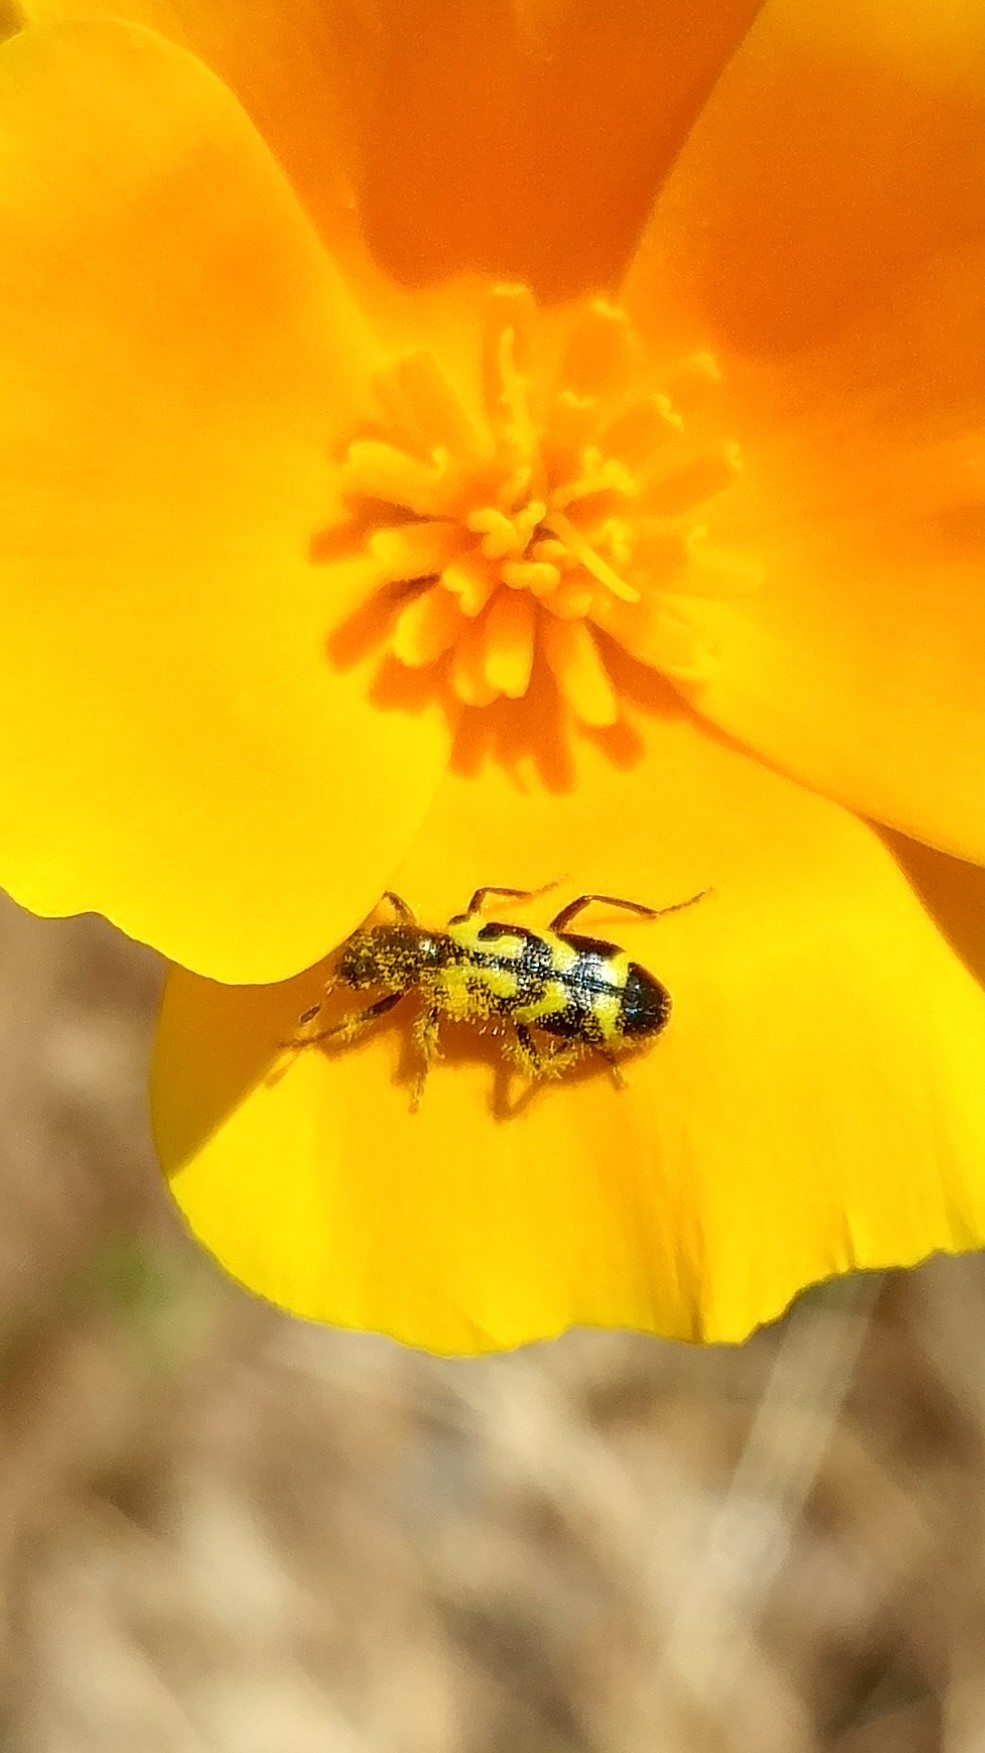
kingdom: Animalia
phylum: Arthropoda
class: Insecta
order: Coleoptera
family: Cleridae
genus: Trichodes
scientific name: Trichodes ornatus
